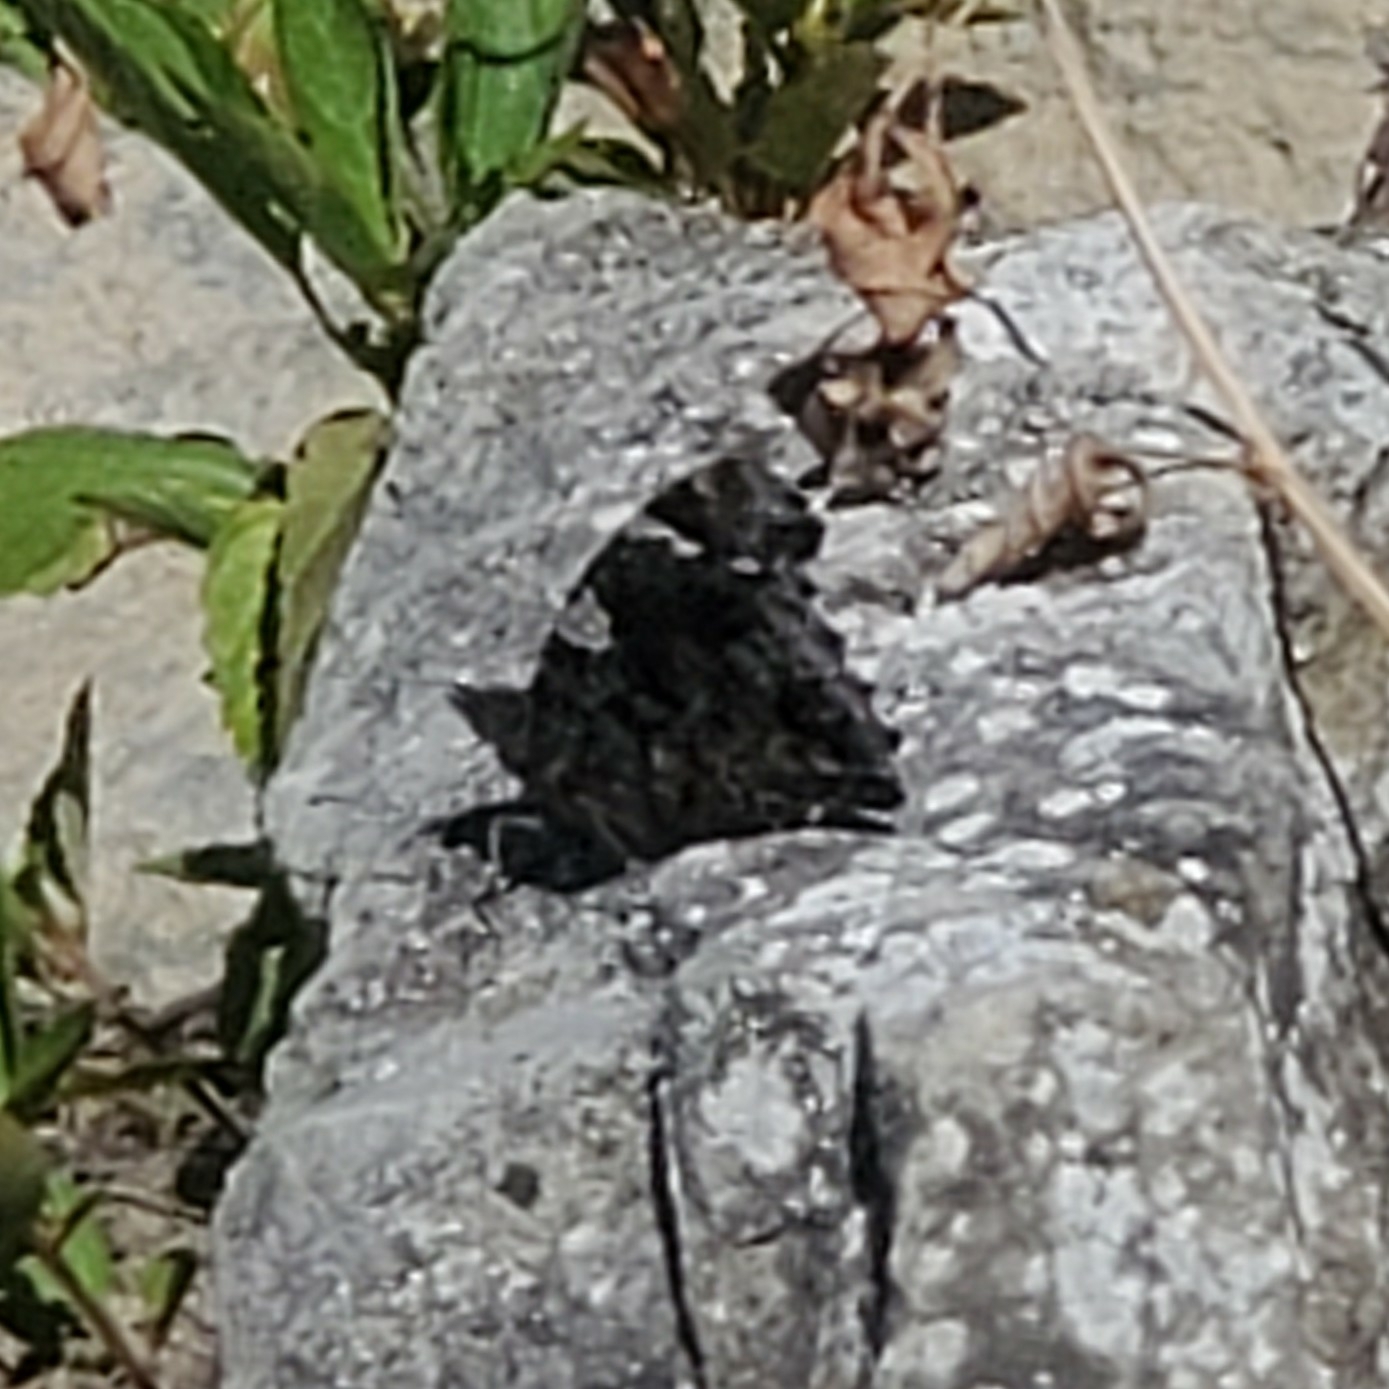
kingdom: Animalia
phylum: Arthropoda
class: Insecta
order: Lepidoptera
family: Nymphalidae
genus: Vanessa
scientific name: Vanessa atalanta
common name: Red admiral
